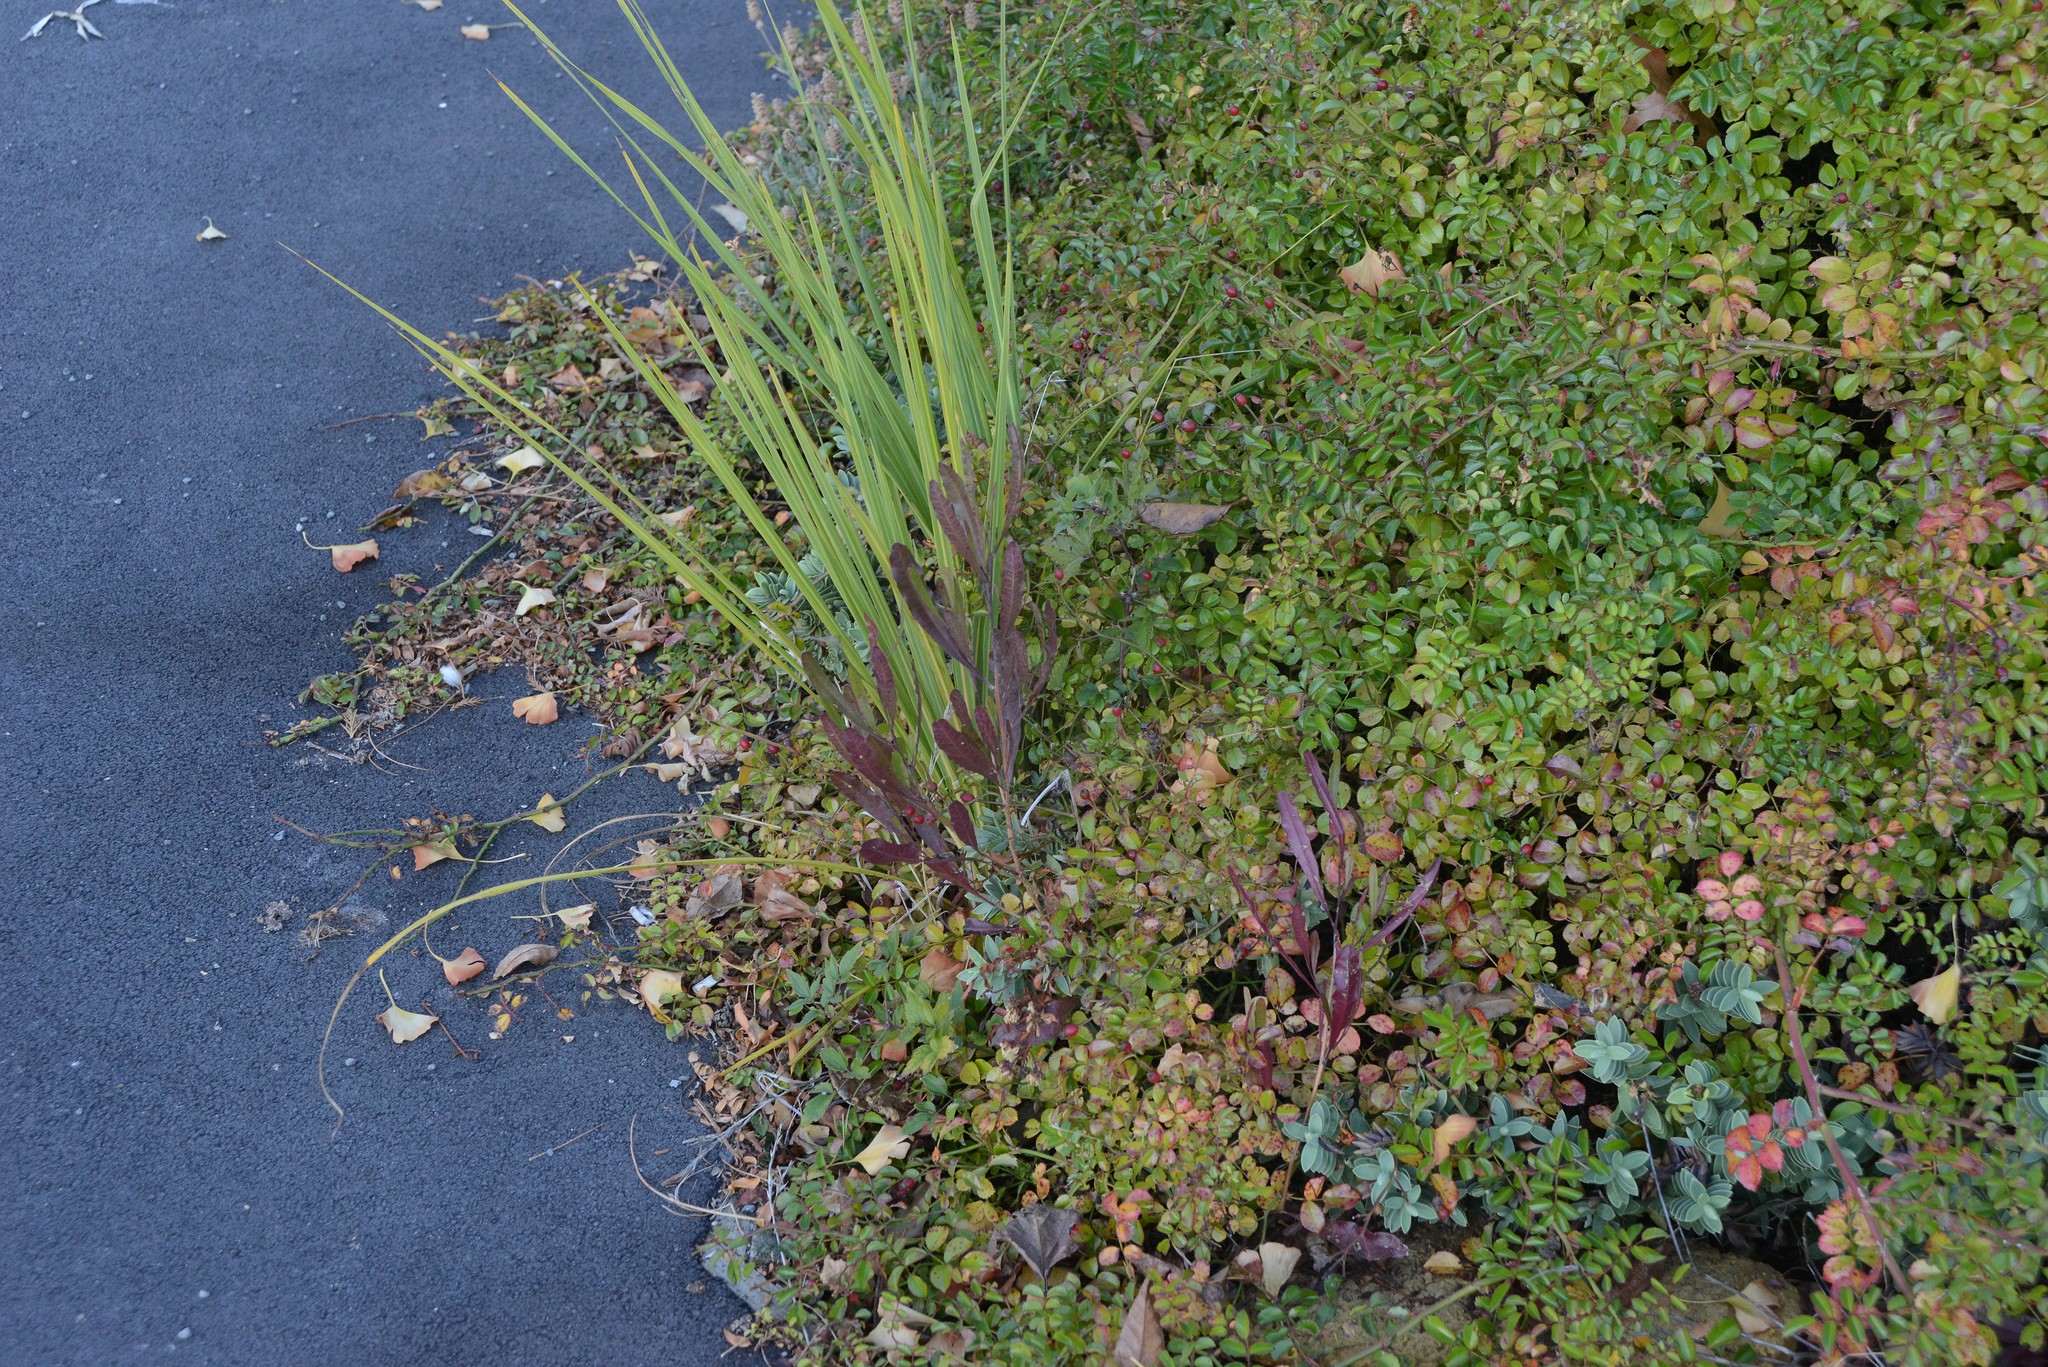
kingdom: Plantae
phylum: Tracheophyta
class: Magnoliopsida
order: Sapindales
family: Sapindaceae
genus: Dodonaea
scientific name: Dodonaea viscosa
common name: Hopbush
